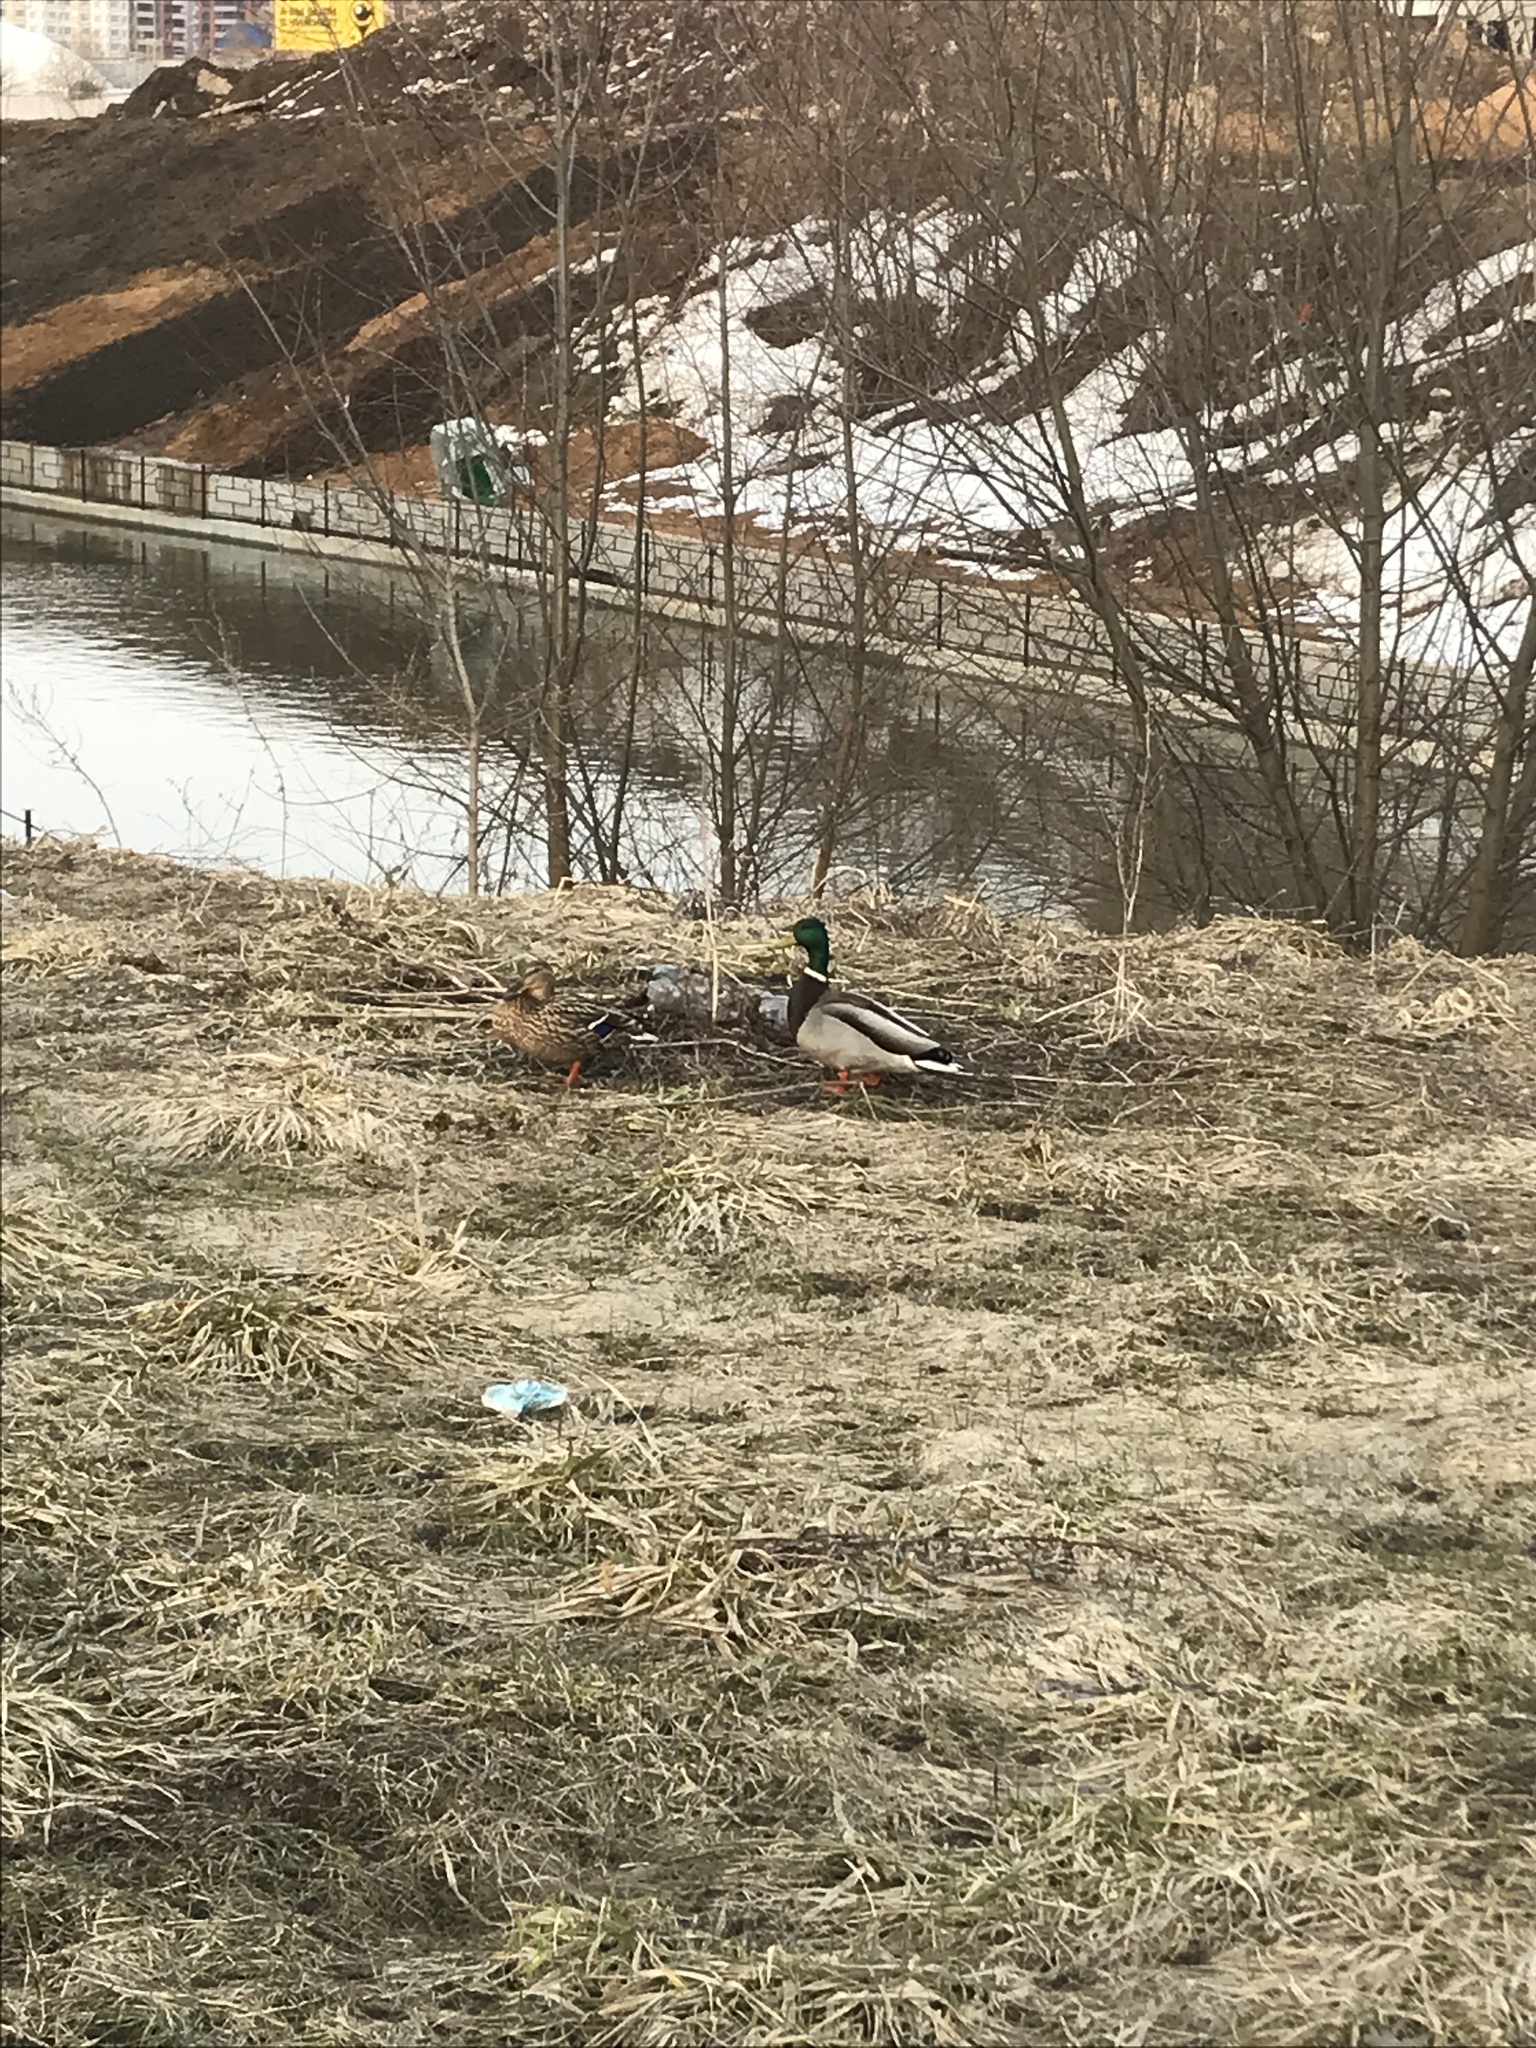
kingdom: Animalia
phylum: Chordata
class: Aves
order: Anseriformes
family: Anatidae
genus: Anas
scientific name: Anas platyrhynchos
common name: Mallard
